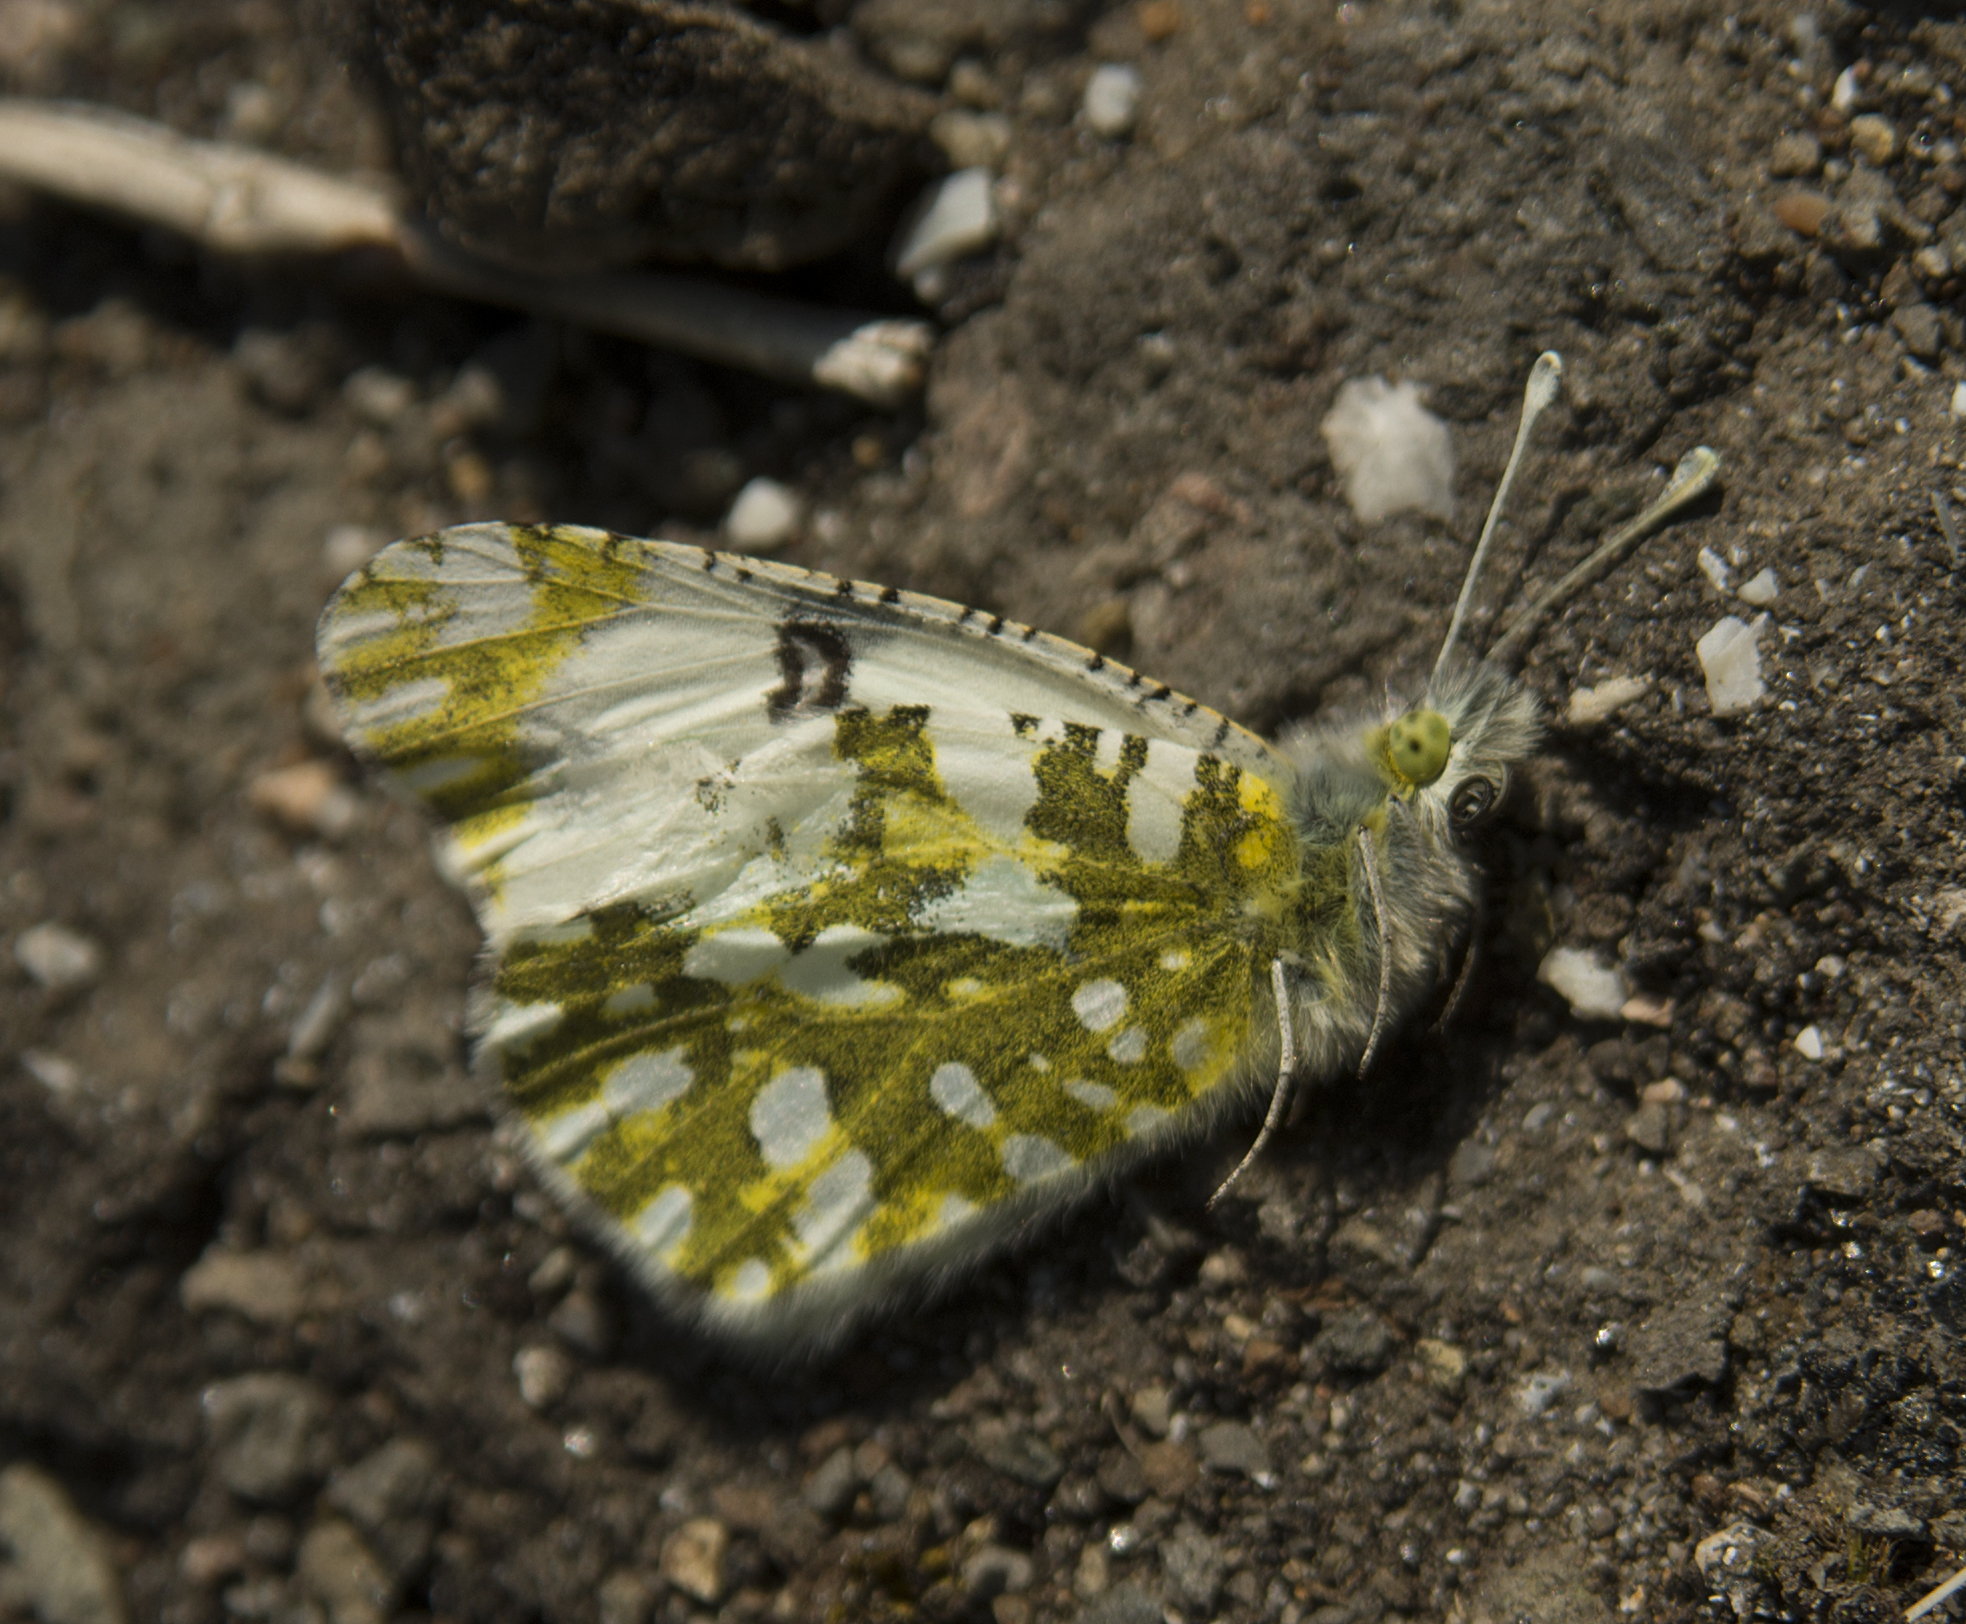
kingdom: Animalia
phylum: Arthropoda
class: Insecta
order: Lepidoptera
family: Pieridae
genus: Euchloe
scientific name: Euchloe ausonia
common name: Eastern dappled white
